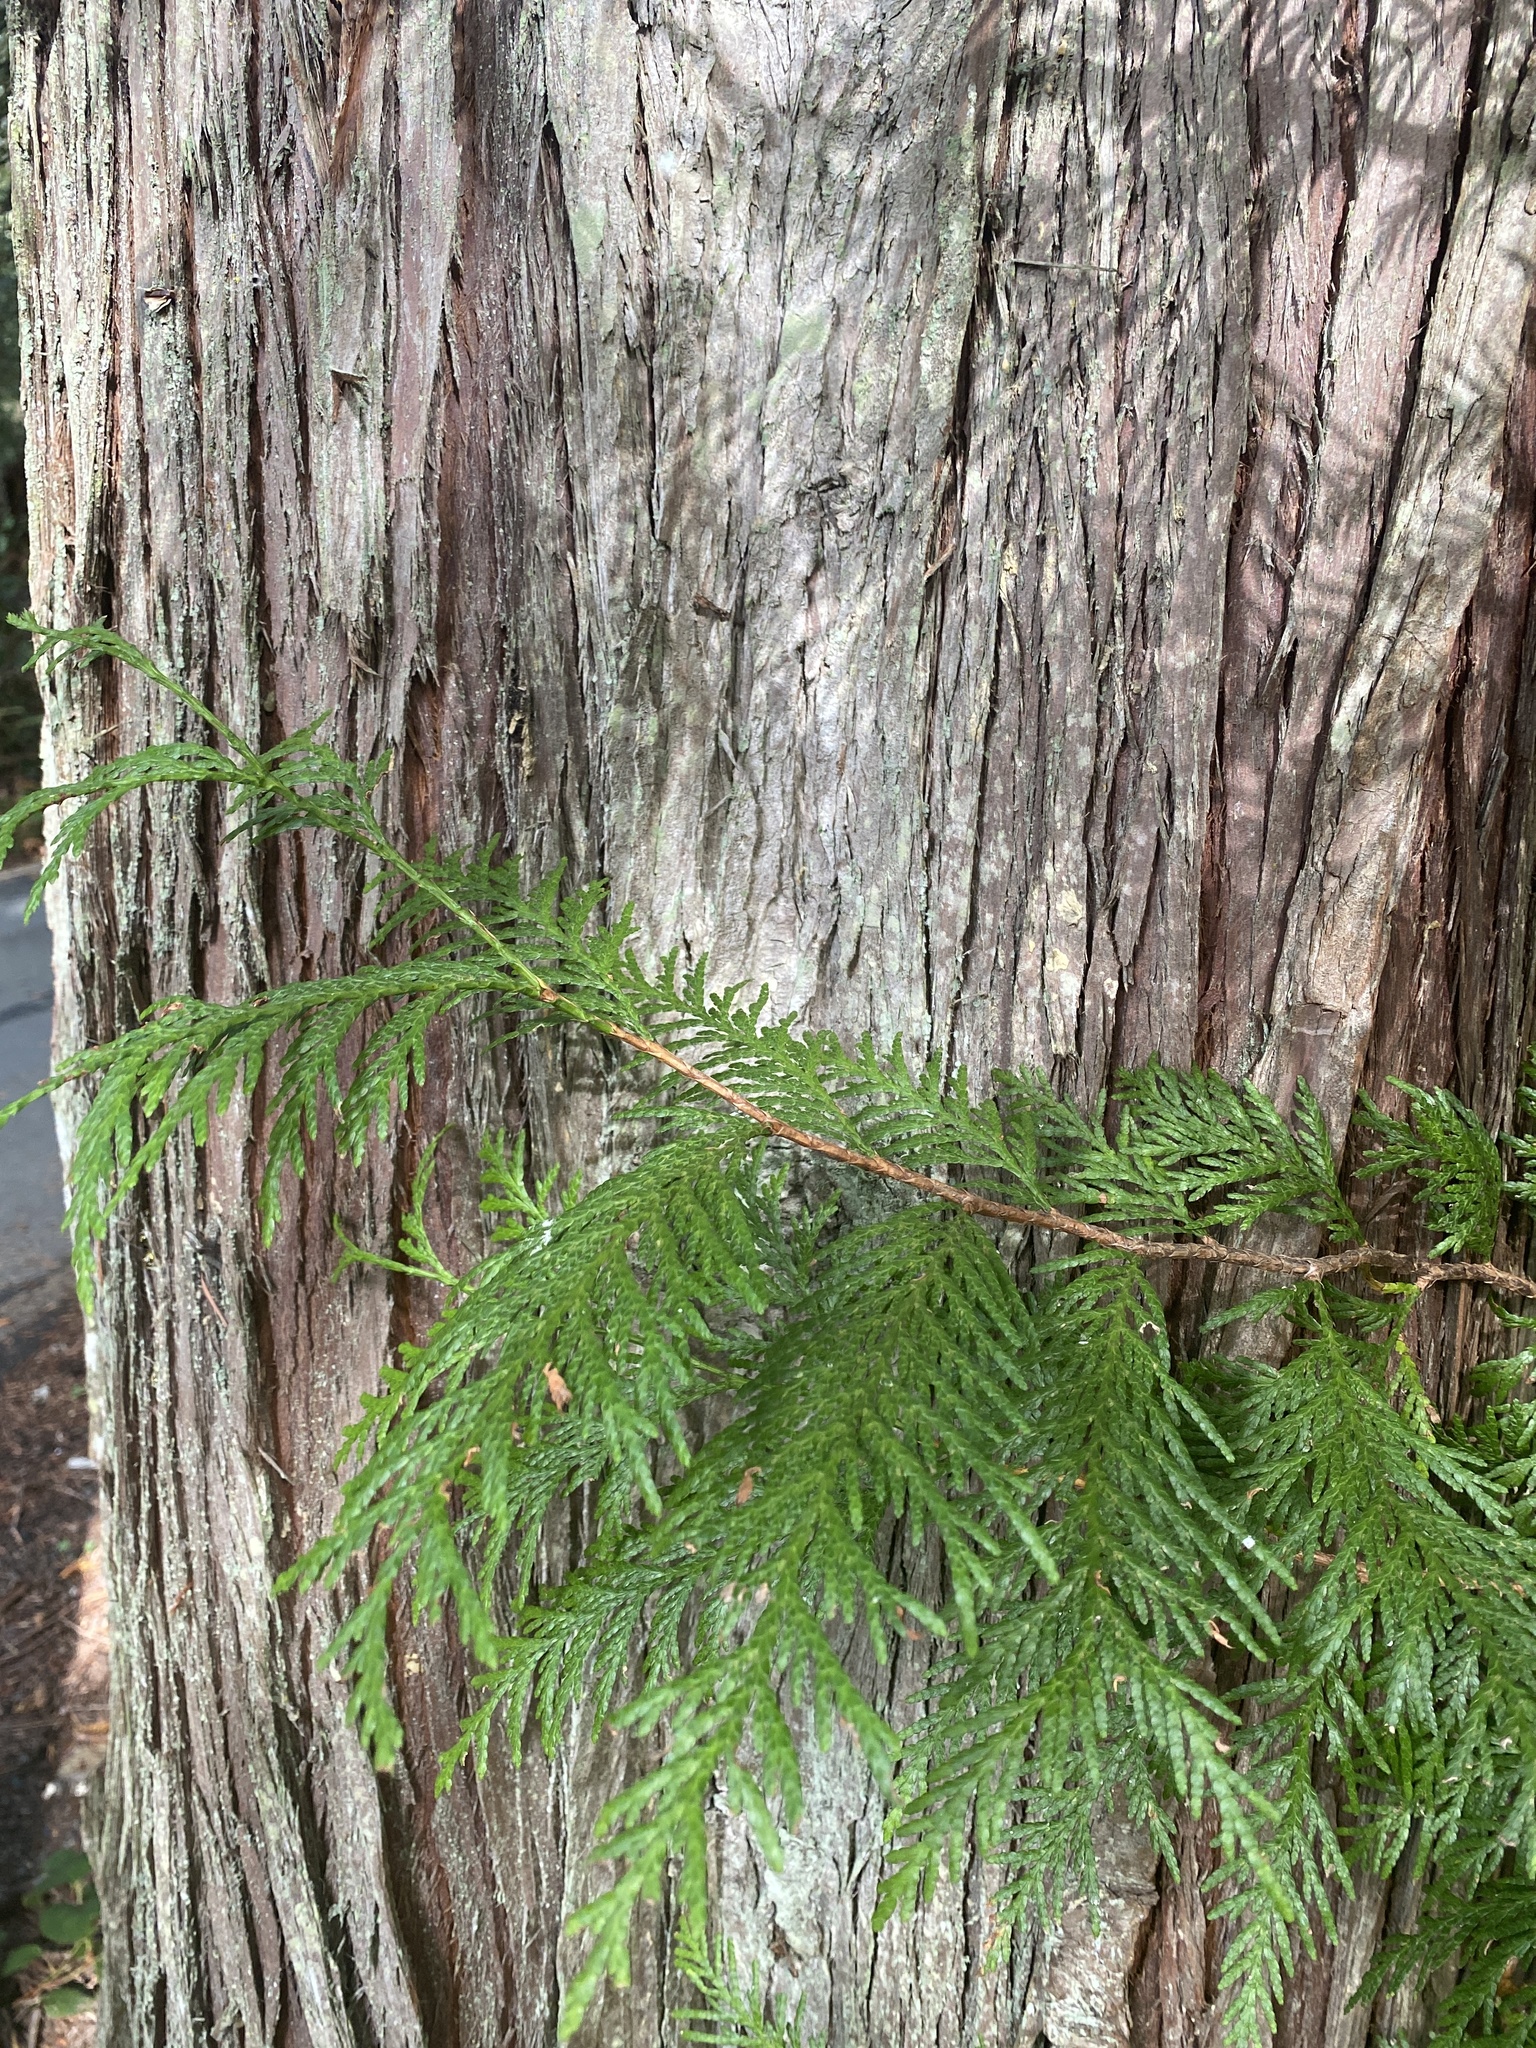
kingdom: Plantae
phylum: Tracheophyta
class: Pinopsida
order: Pinales
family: Cupressaceae
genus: Thuja
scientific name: Thuja plicata
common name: Western red-cedar
